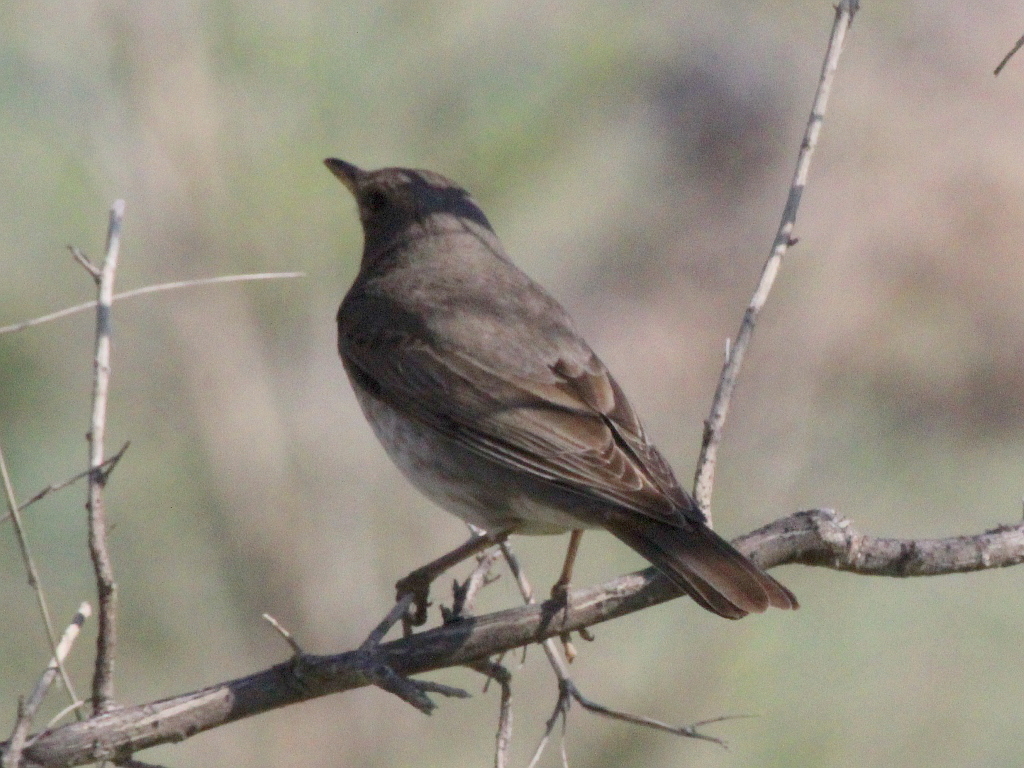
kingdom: Animalia
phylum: Chordata
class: Aves
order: Passeriformes
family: Turdidae
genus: Turdus
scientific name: Turdus atrogularis
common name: Black-throated thrush
